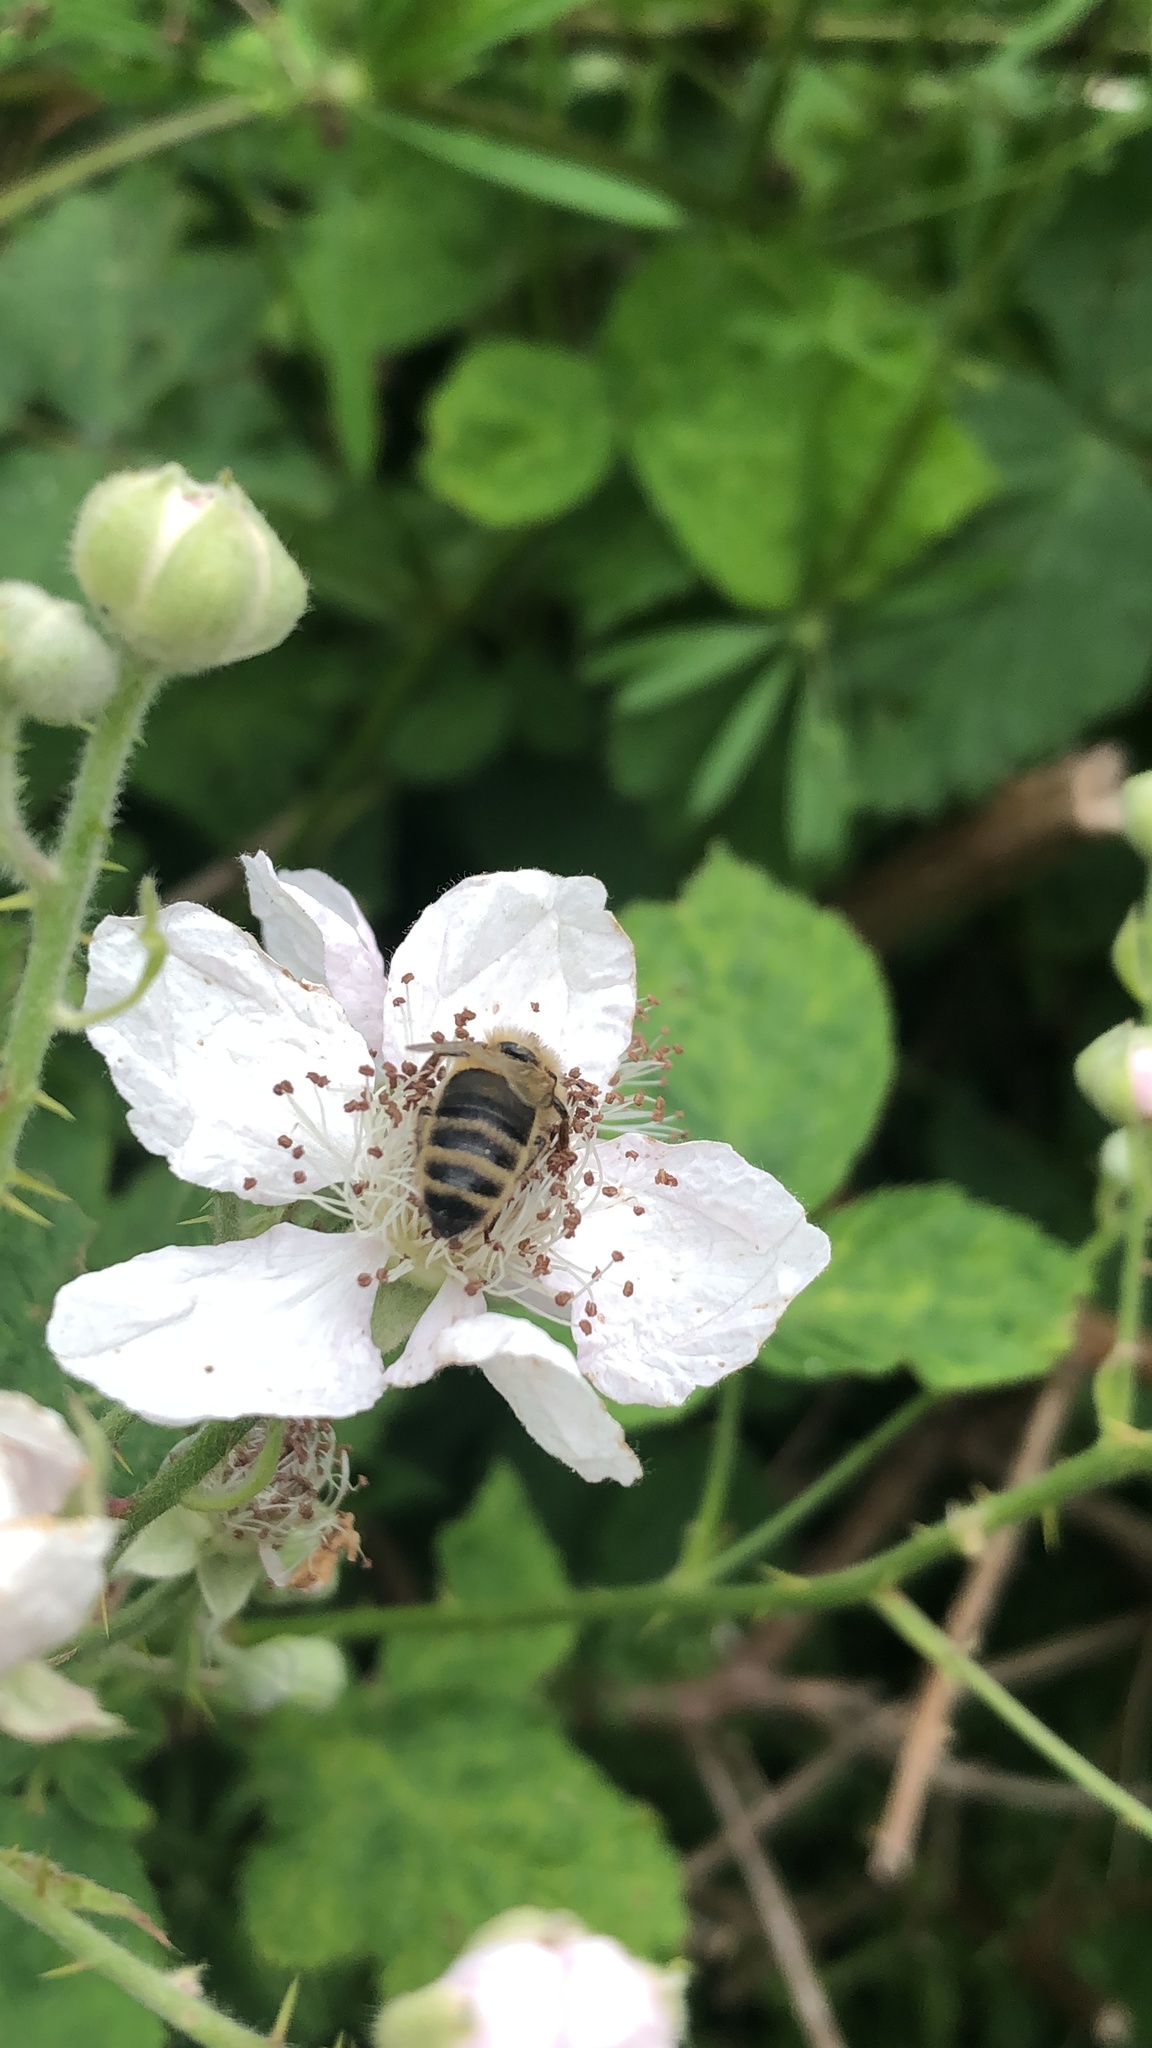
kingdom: Animalia
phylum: Arthropoda
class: Insecta
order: Hymenoptera
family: Apidae
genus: Apis
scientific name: Apis mellifera
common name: Honey bee
